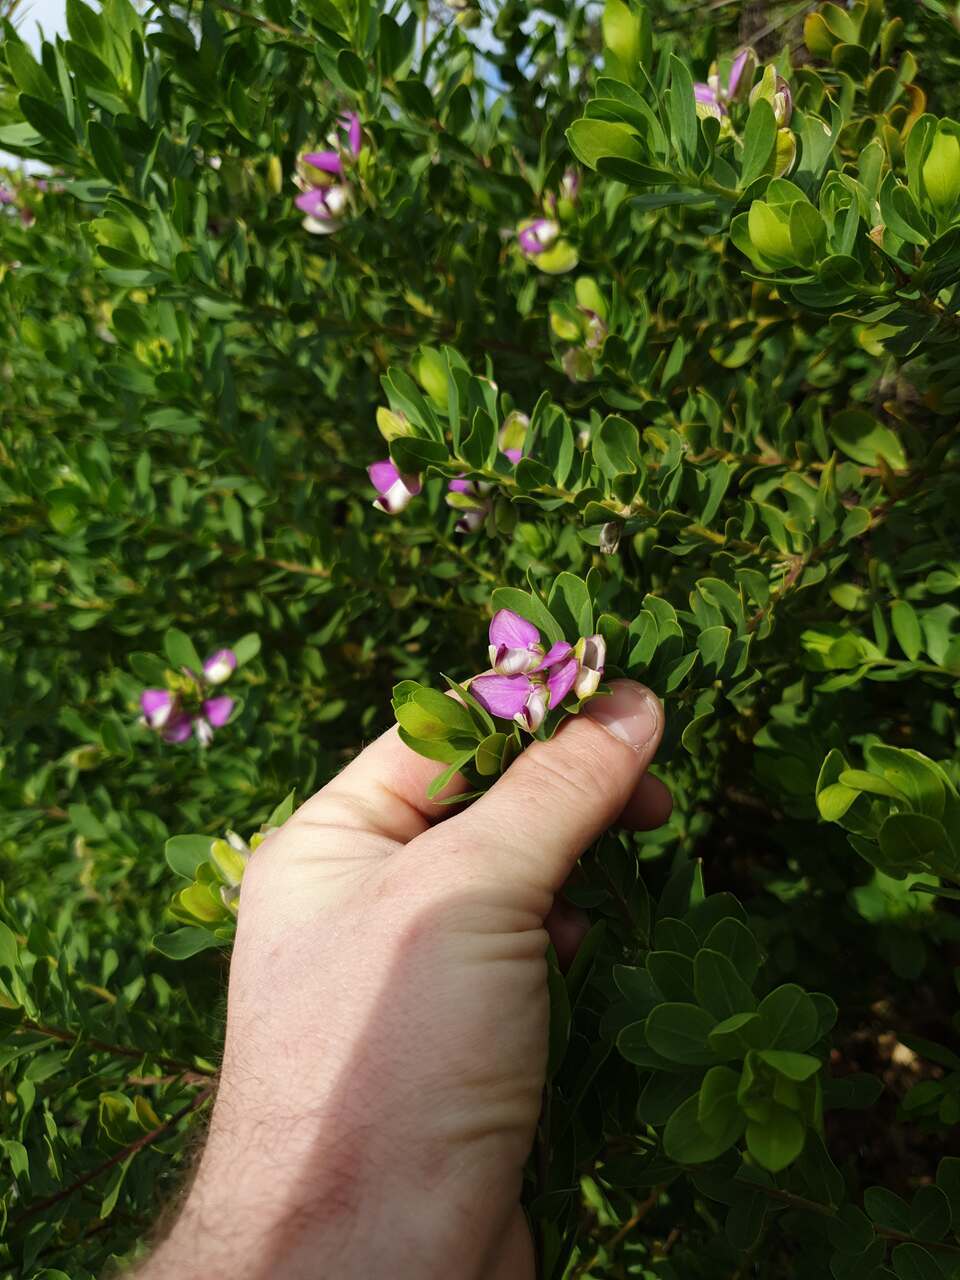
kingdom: Plantae
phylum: Tracheophyta
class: Magnoliopsida
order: Fabales
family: Polygalaceae
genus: Polygala
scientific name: Polygala myrtifolia
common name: Myrtle-leaf milkwort
